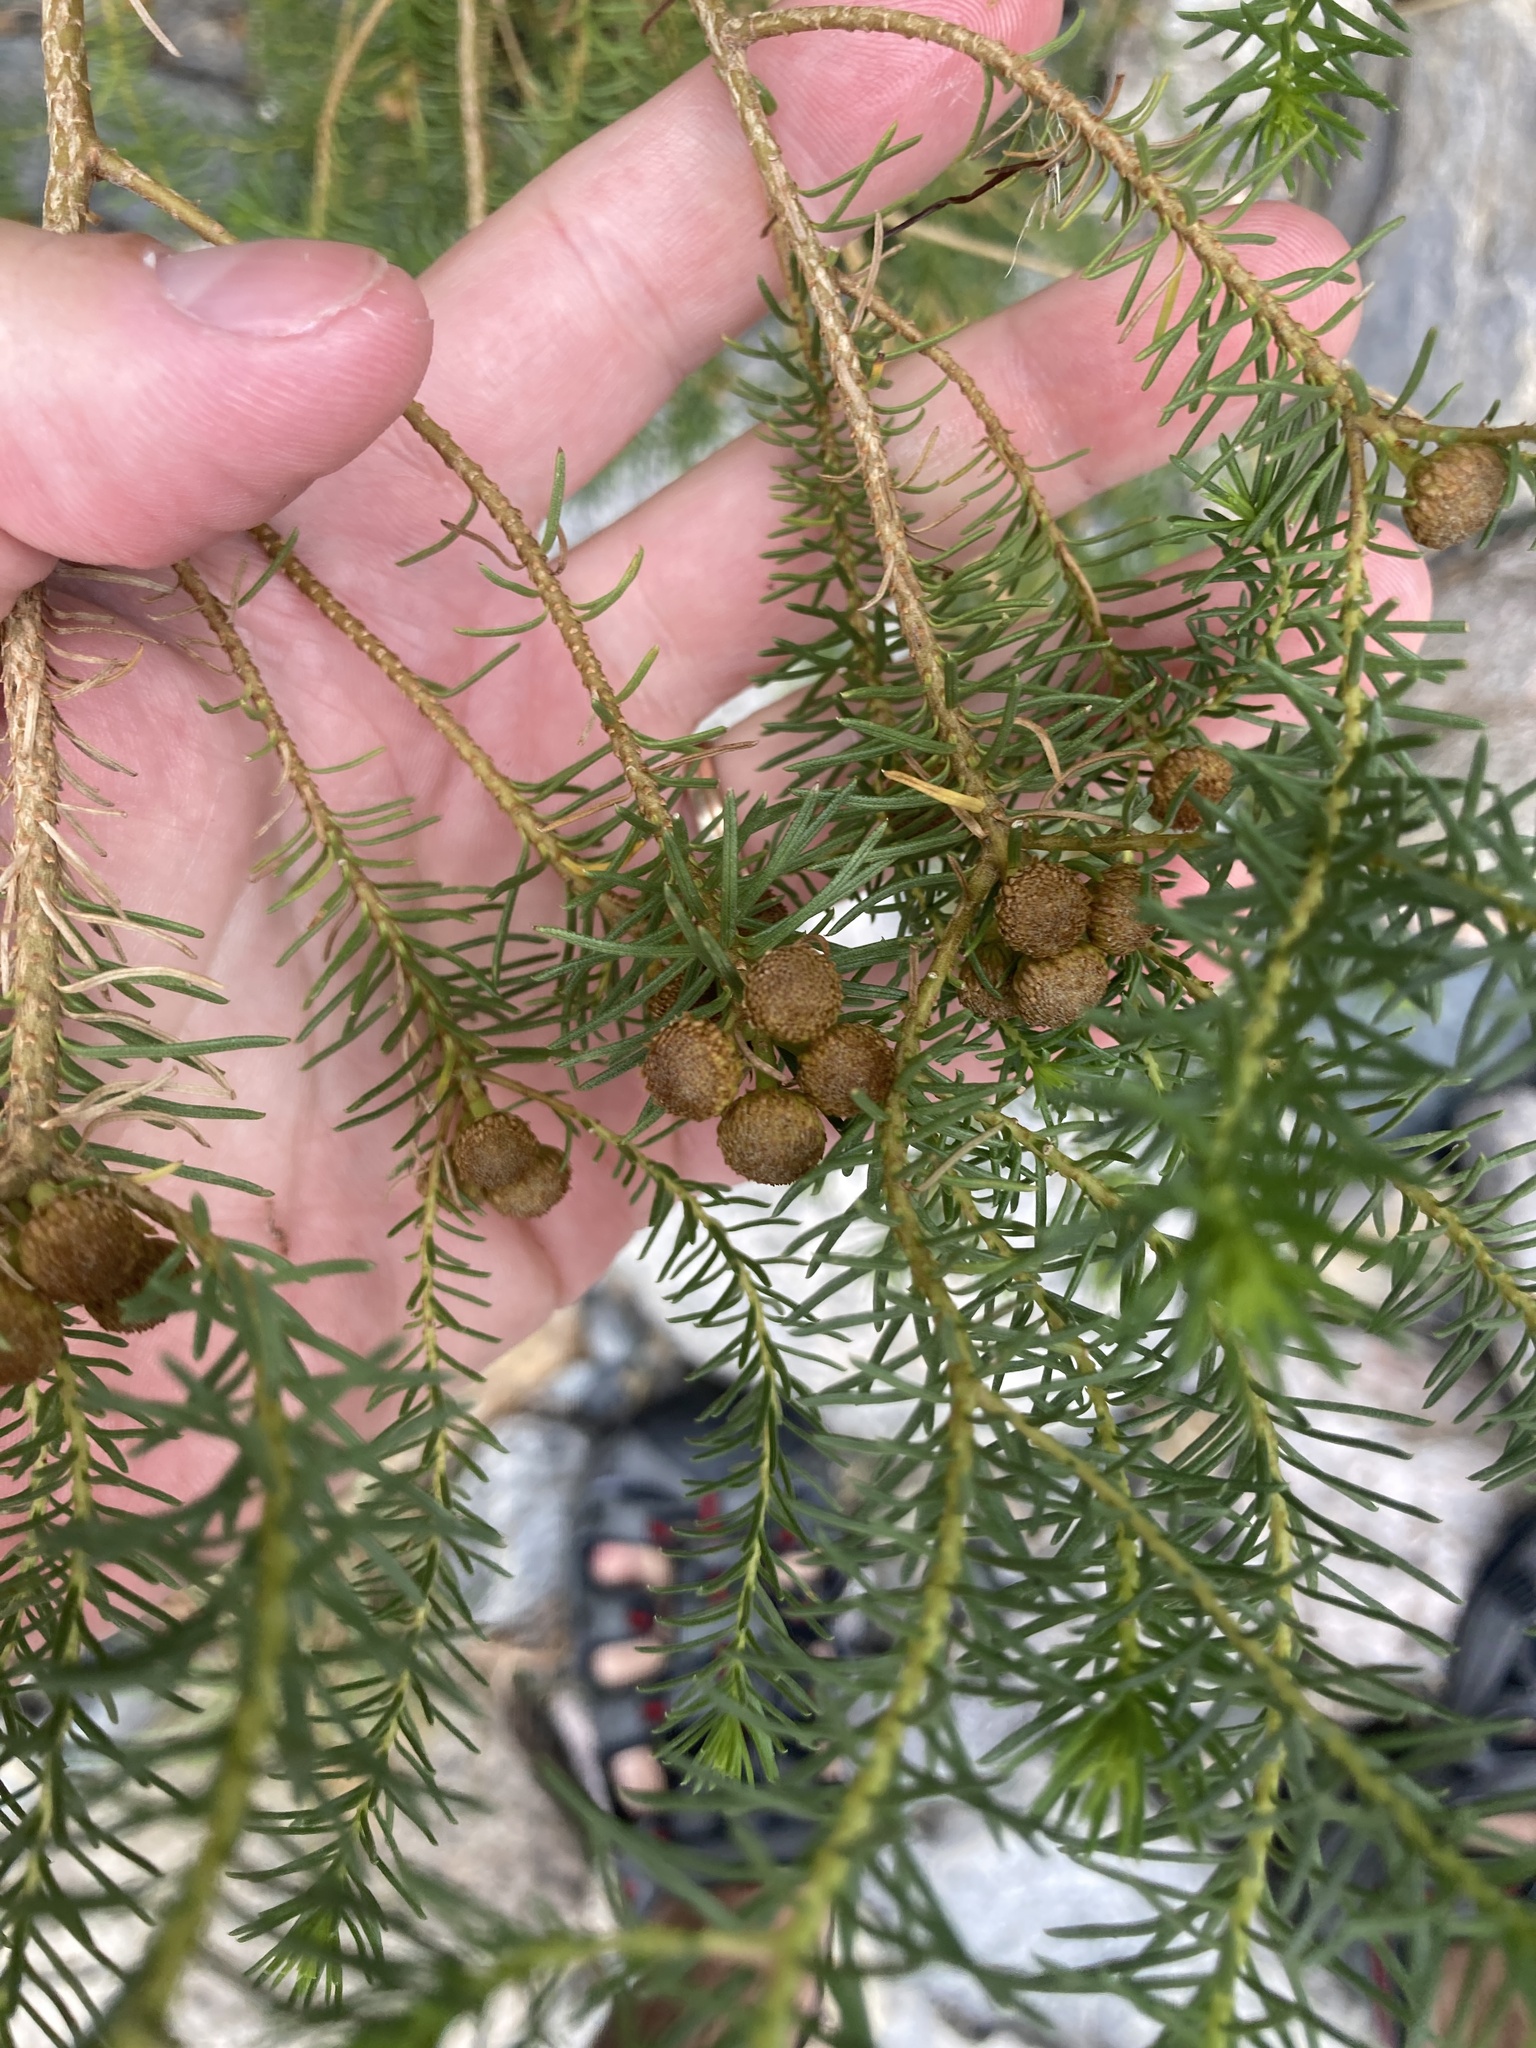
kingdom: Plantae
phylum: Tracheophyta
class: Magnoliopsida
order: Asterales
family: Asteraceae
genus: Baccharis
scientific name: Baccharis aliena
